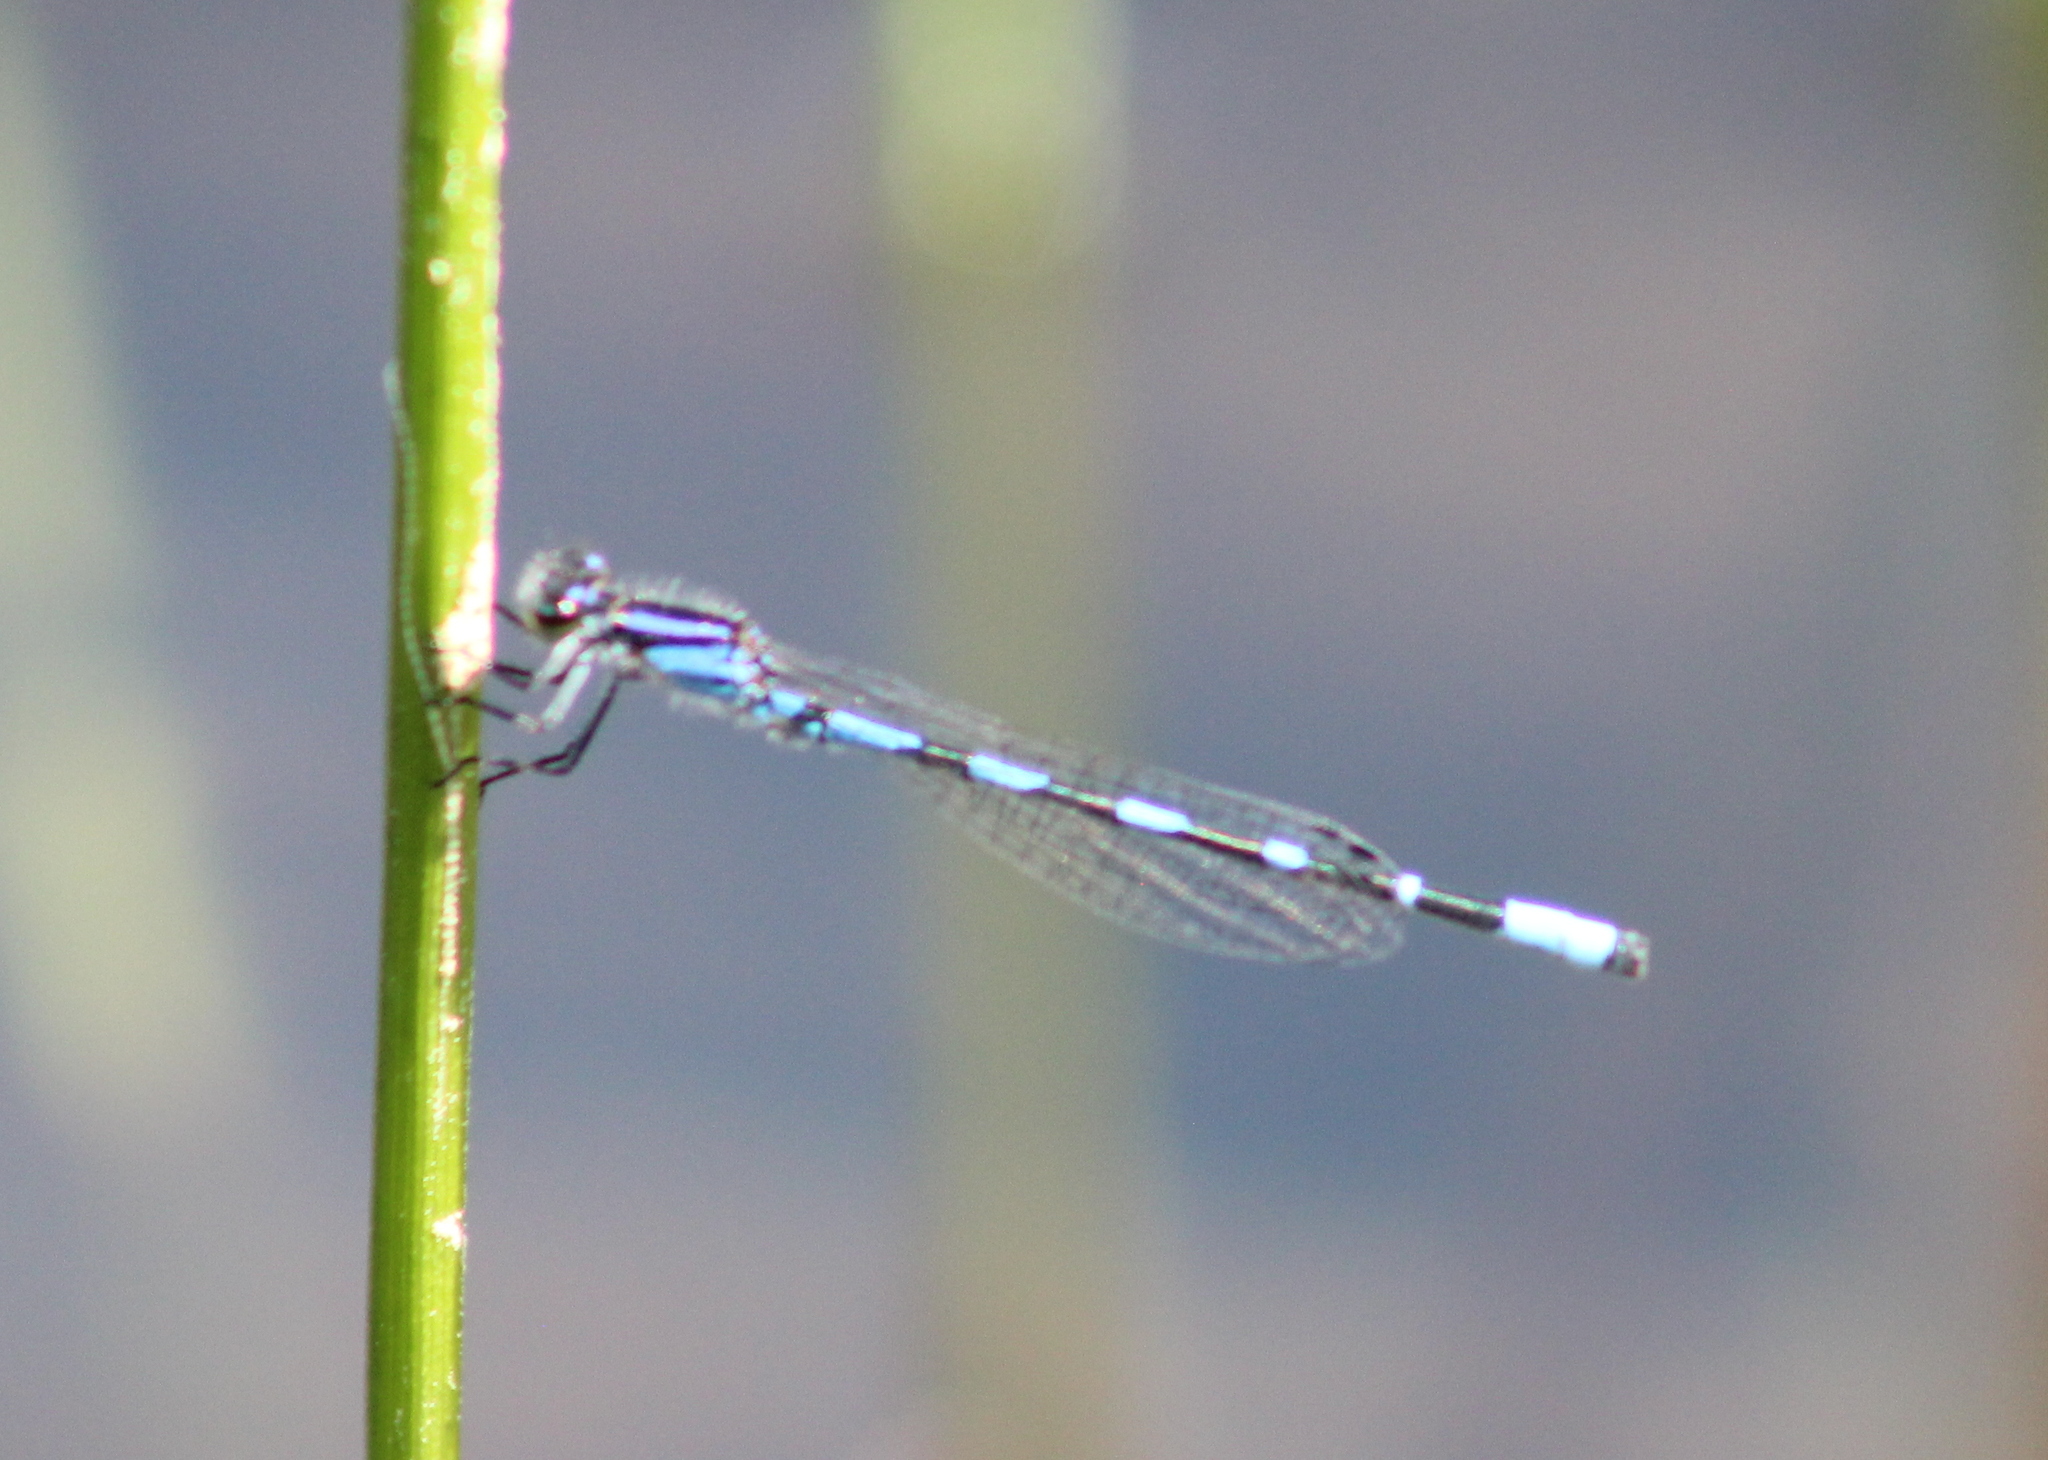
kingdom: Animalia
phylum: Arthropoda
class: Insecta
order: Odonata
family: Coenagrionidae
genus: Enallagma
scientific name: Enallagma carunculatum
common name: Tule bluet
